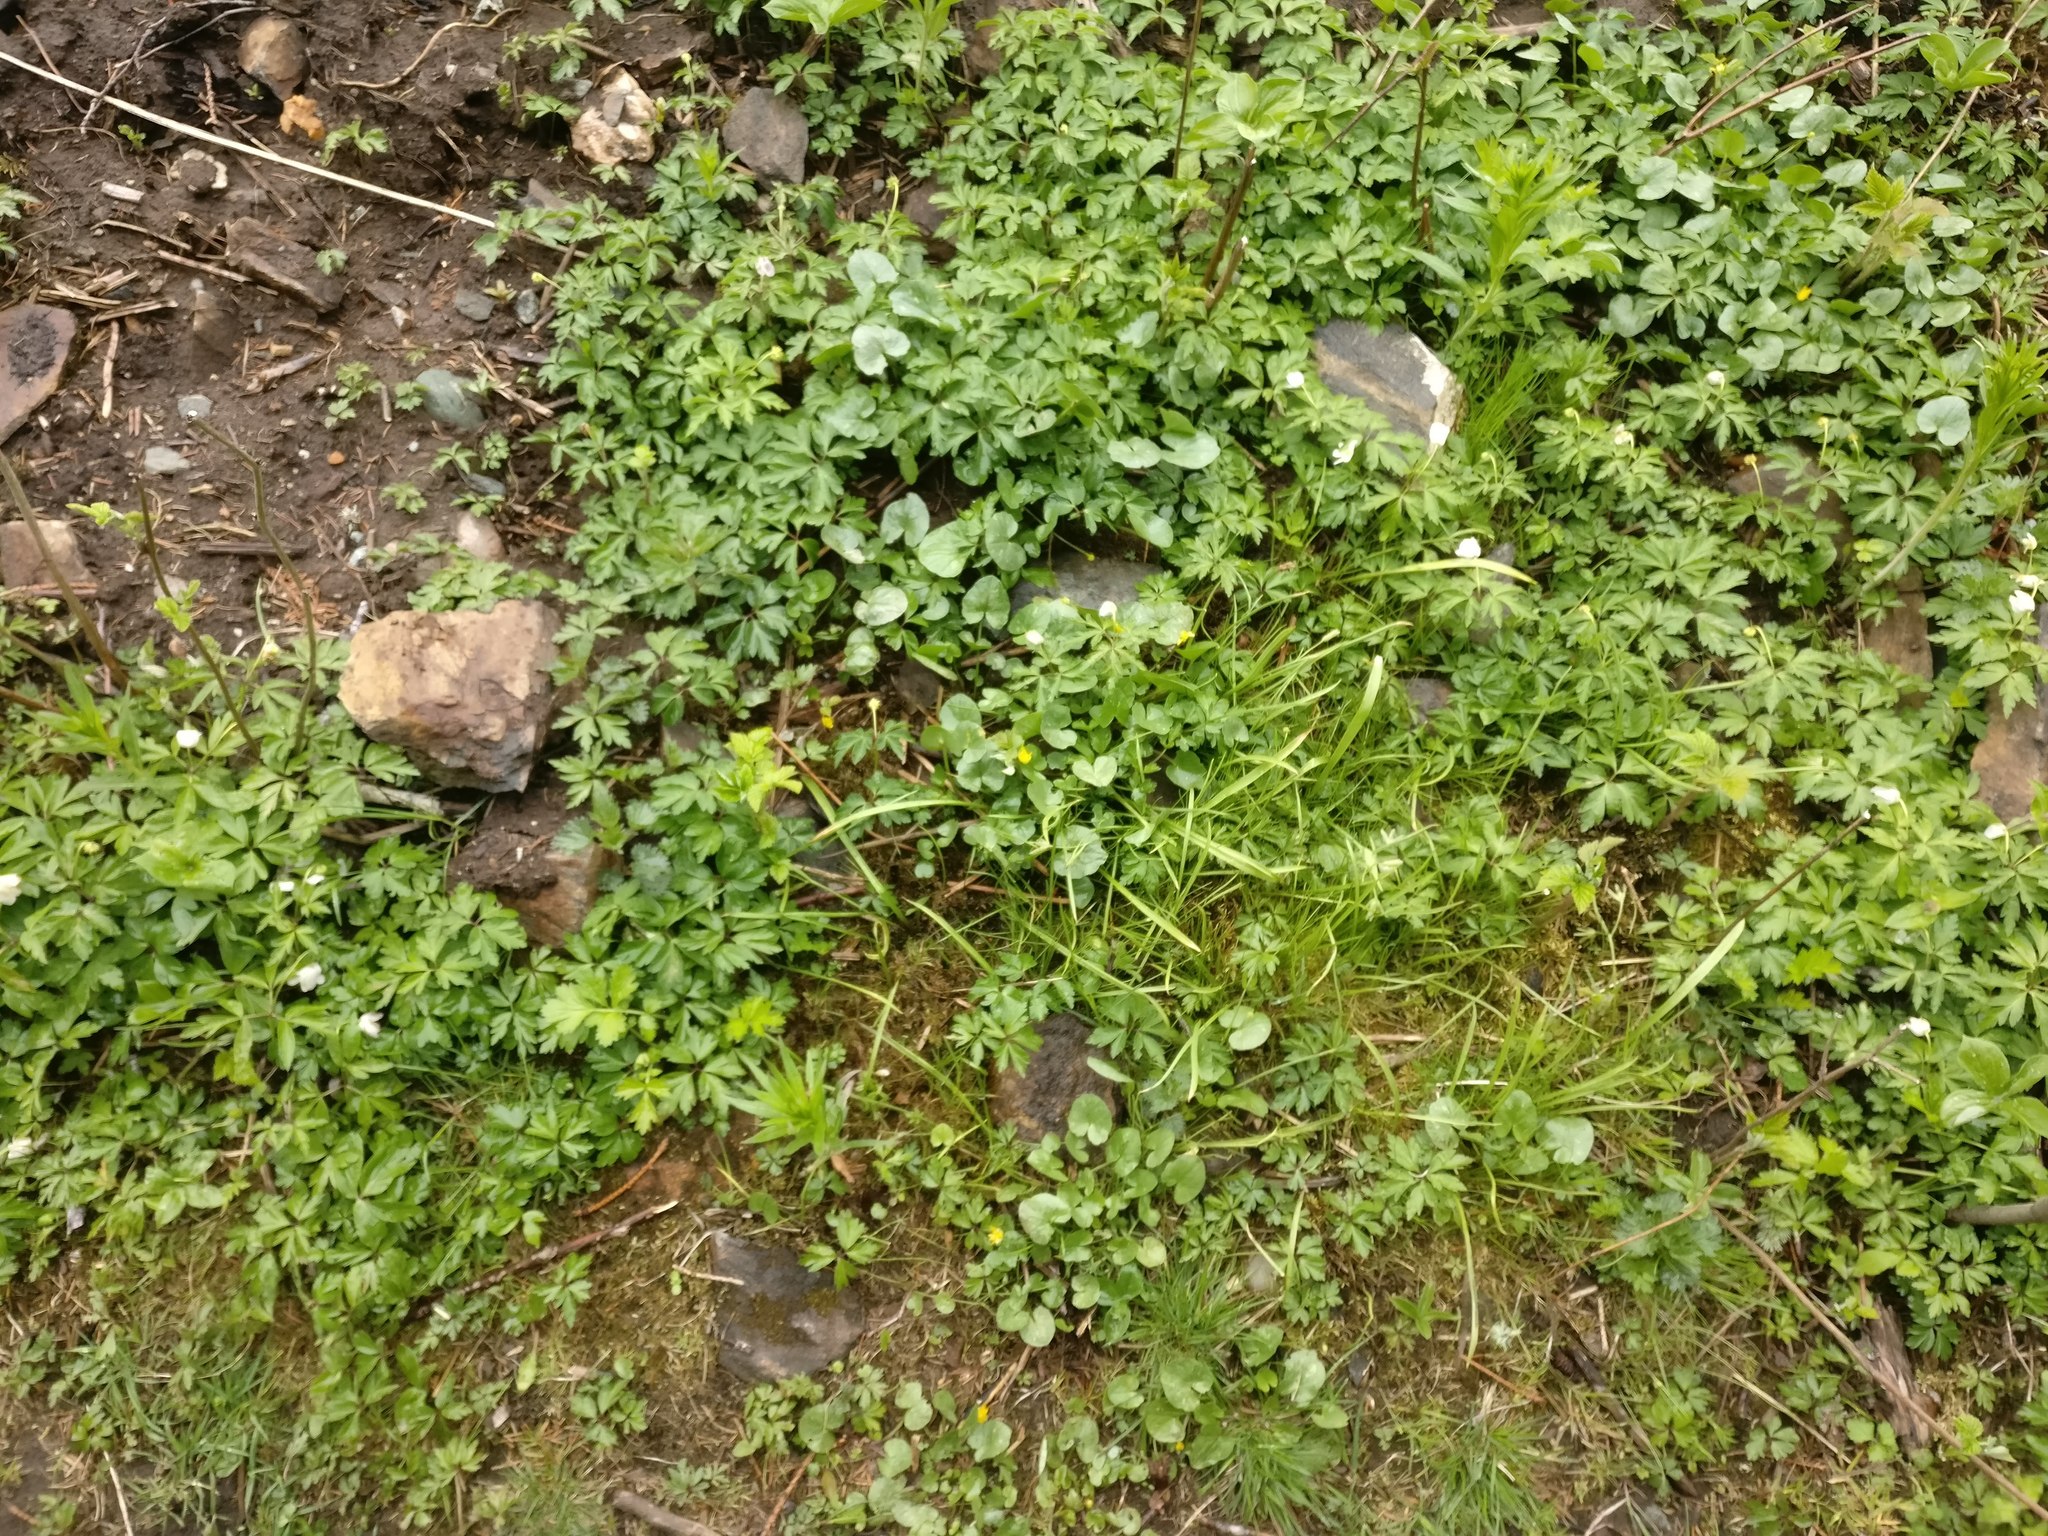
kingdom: Plantae
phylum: Tracheophyta
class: Magnoliopsida
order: Ranunculales
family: Ranunculaceae
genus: Ficaria
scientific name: Ficaria verna
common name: Lesser celandine
